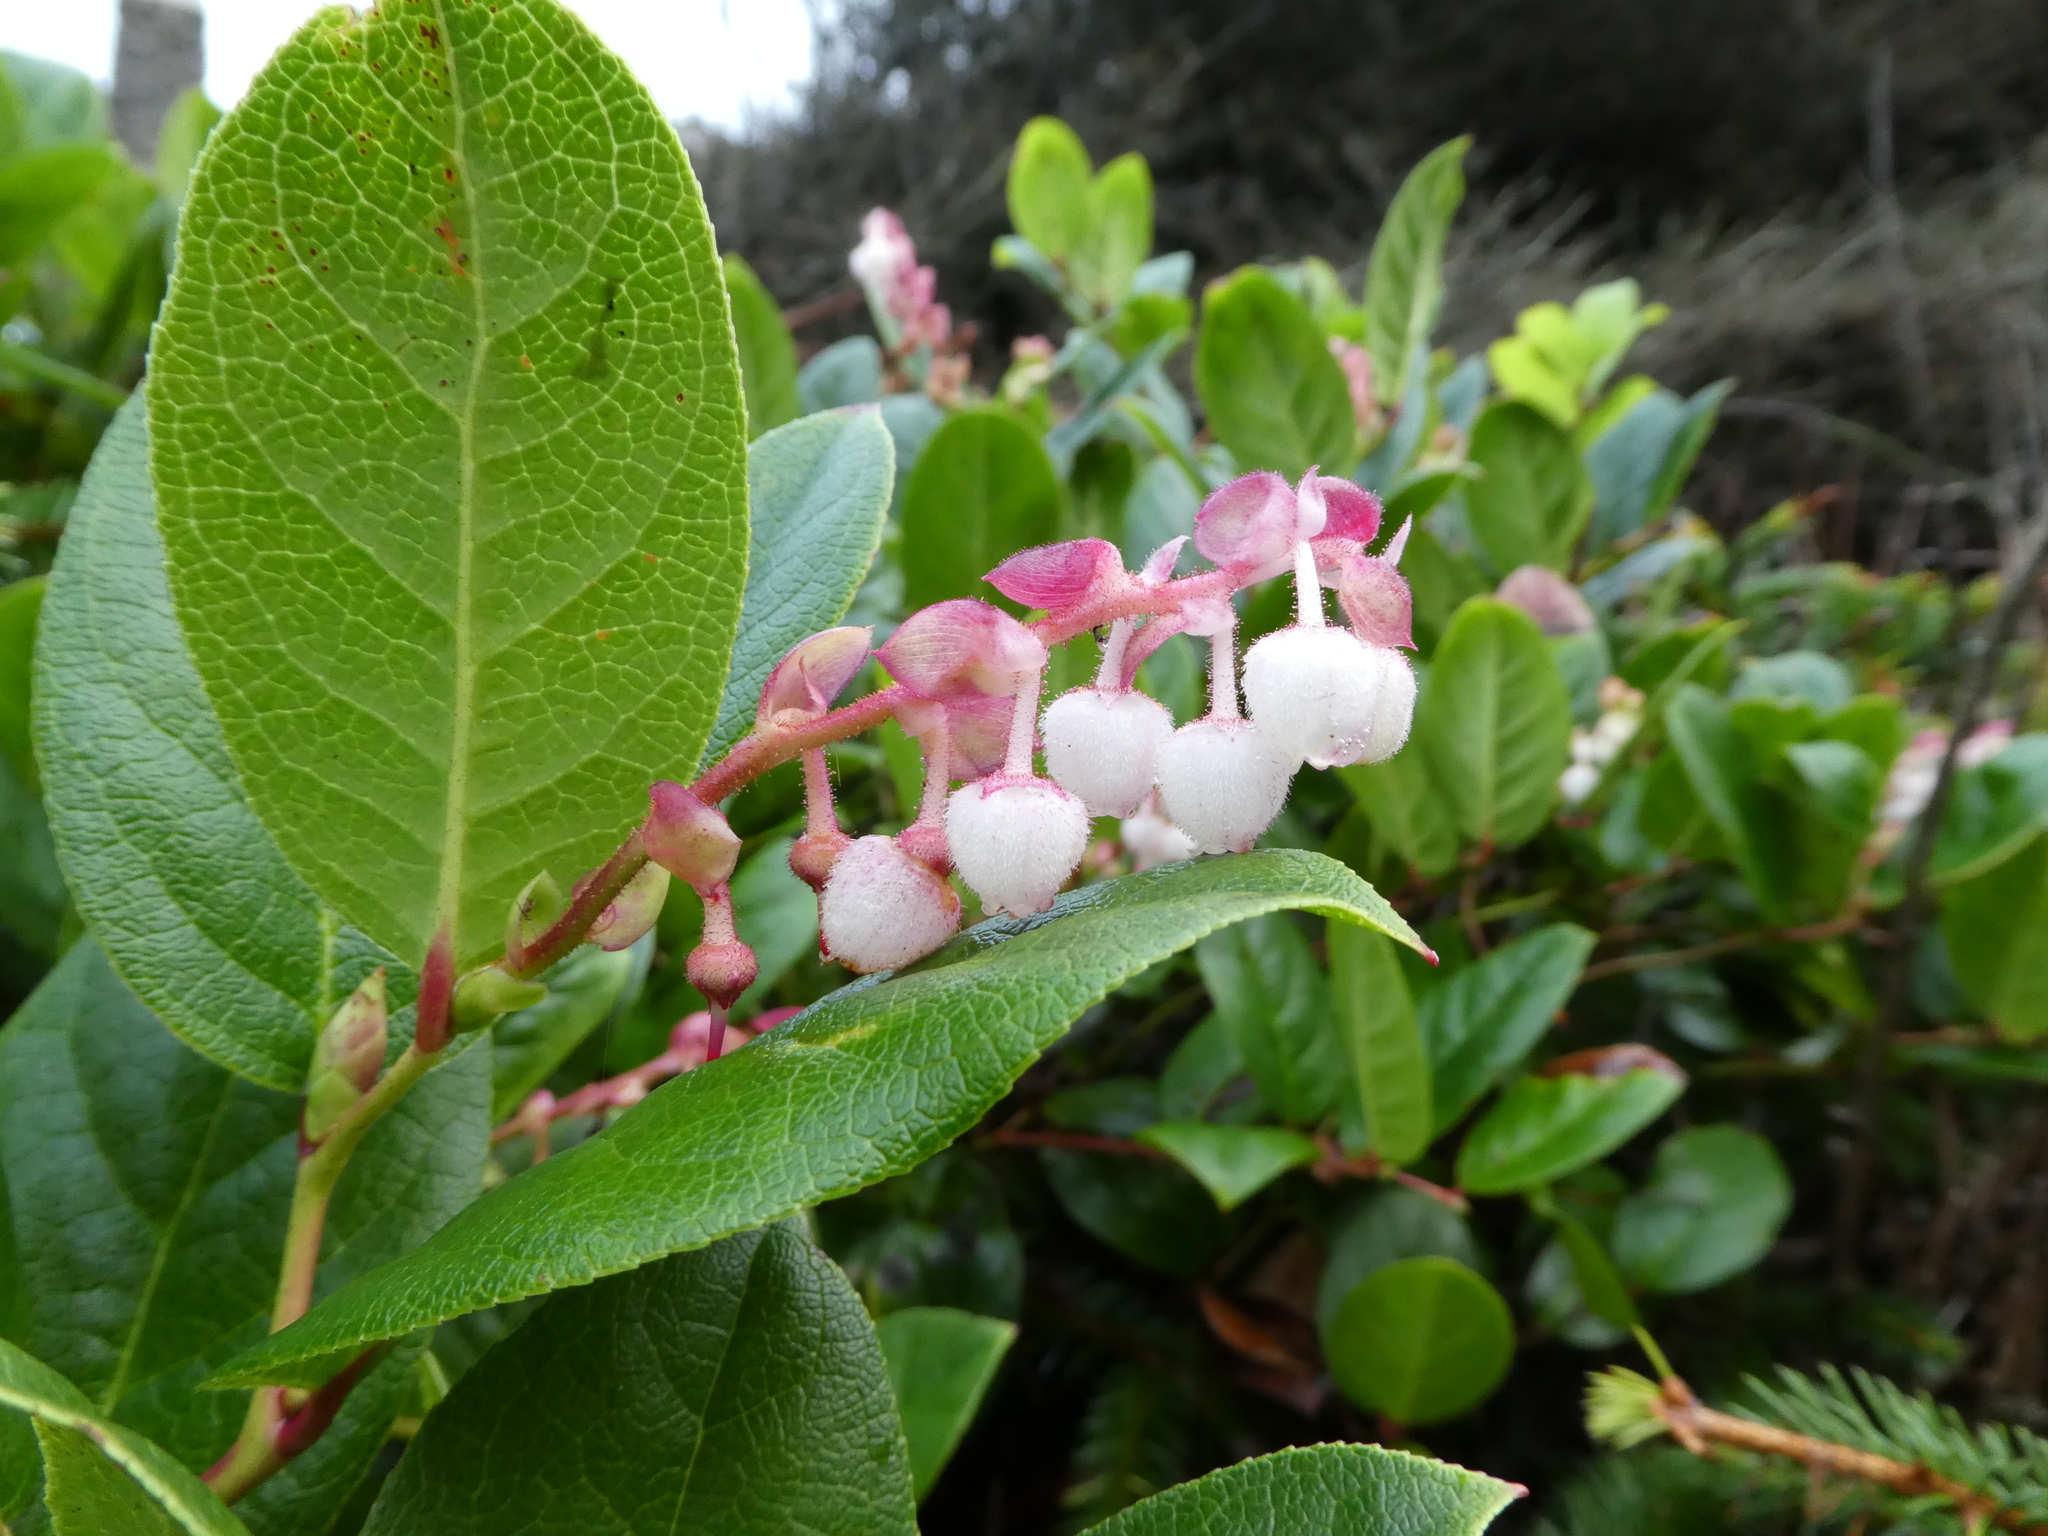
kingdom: Plantae
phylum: Tracheophyta
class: Magnoliopsida
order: Ericales
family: Ericaceae
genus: Gaultheria
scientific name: Gaultheria shallon
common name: Shallon
